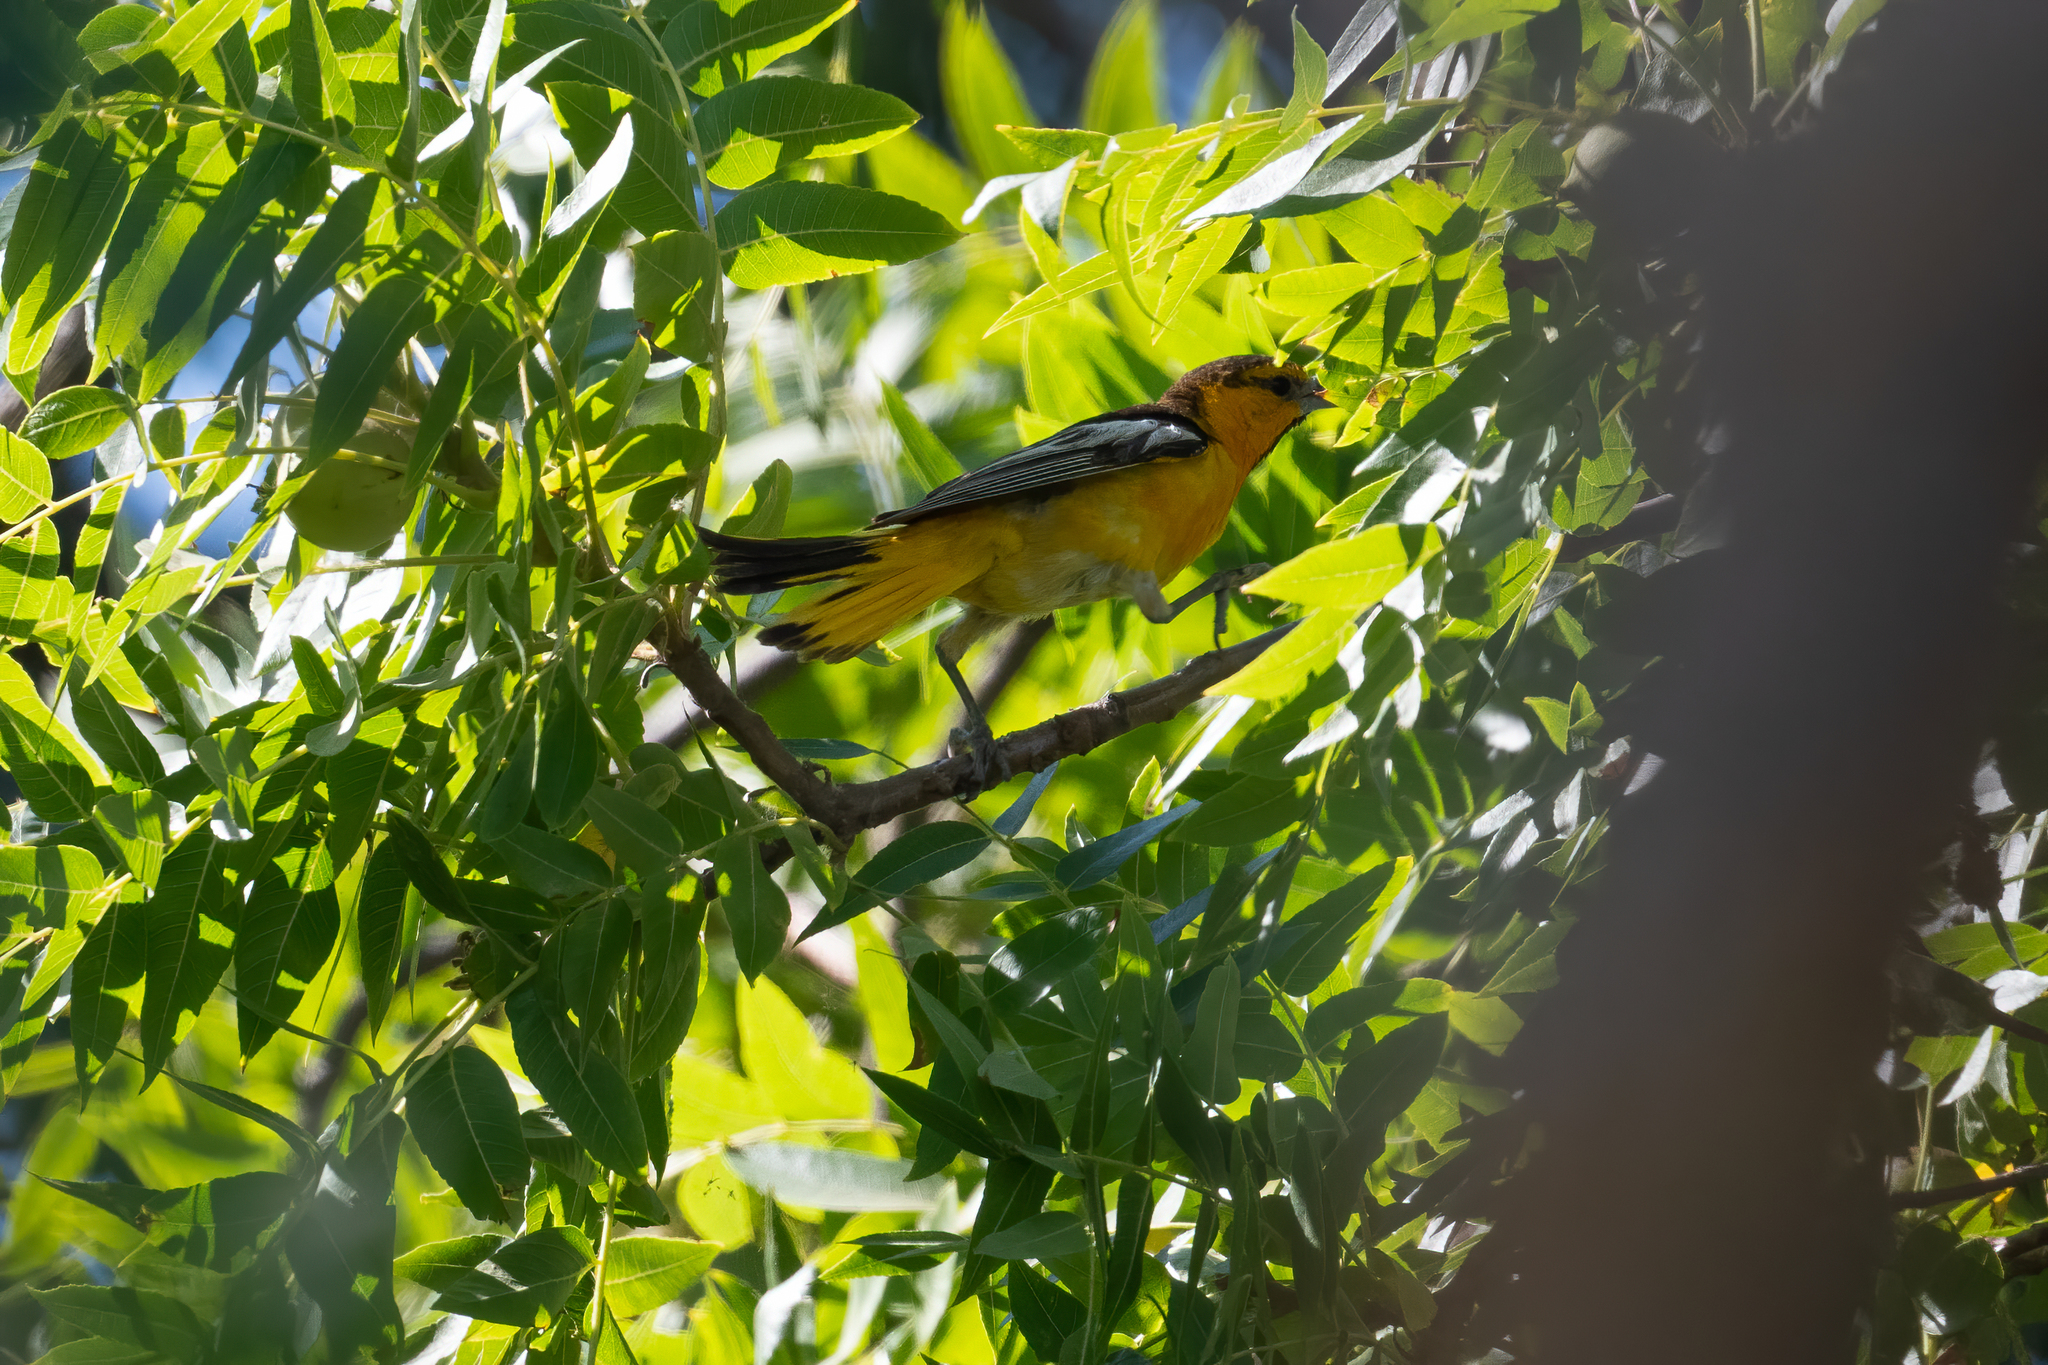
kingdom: Animalia
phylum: Chordata
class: Aves
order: Passeriformes
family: Icteridae
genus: Icterus
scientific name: Icterus bullockii
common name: Bullock's oriole
